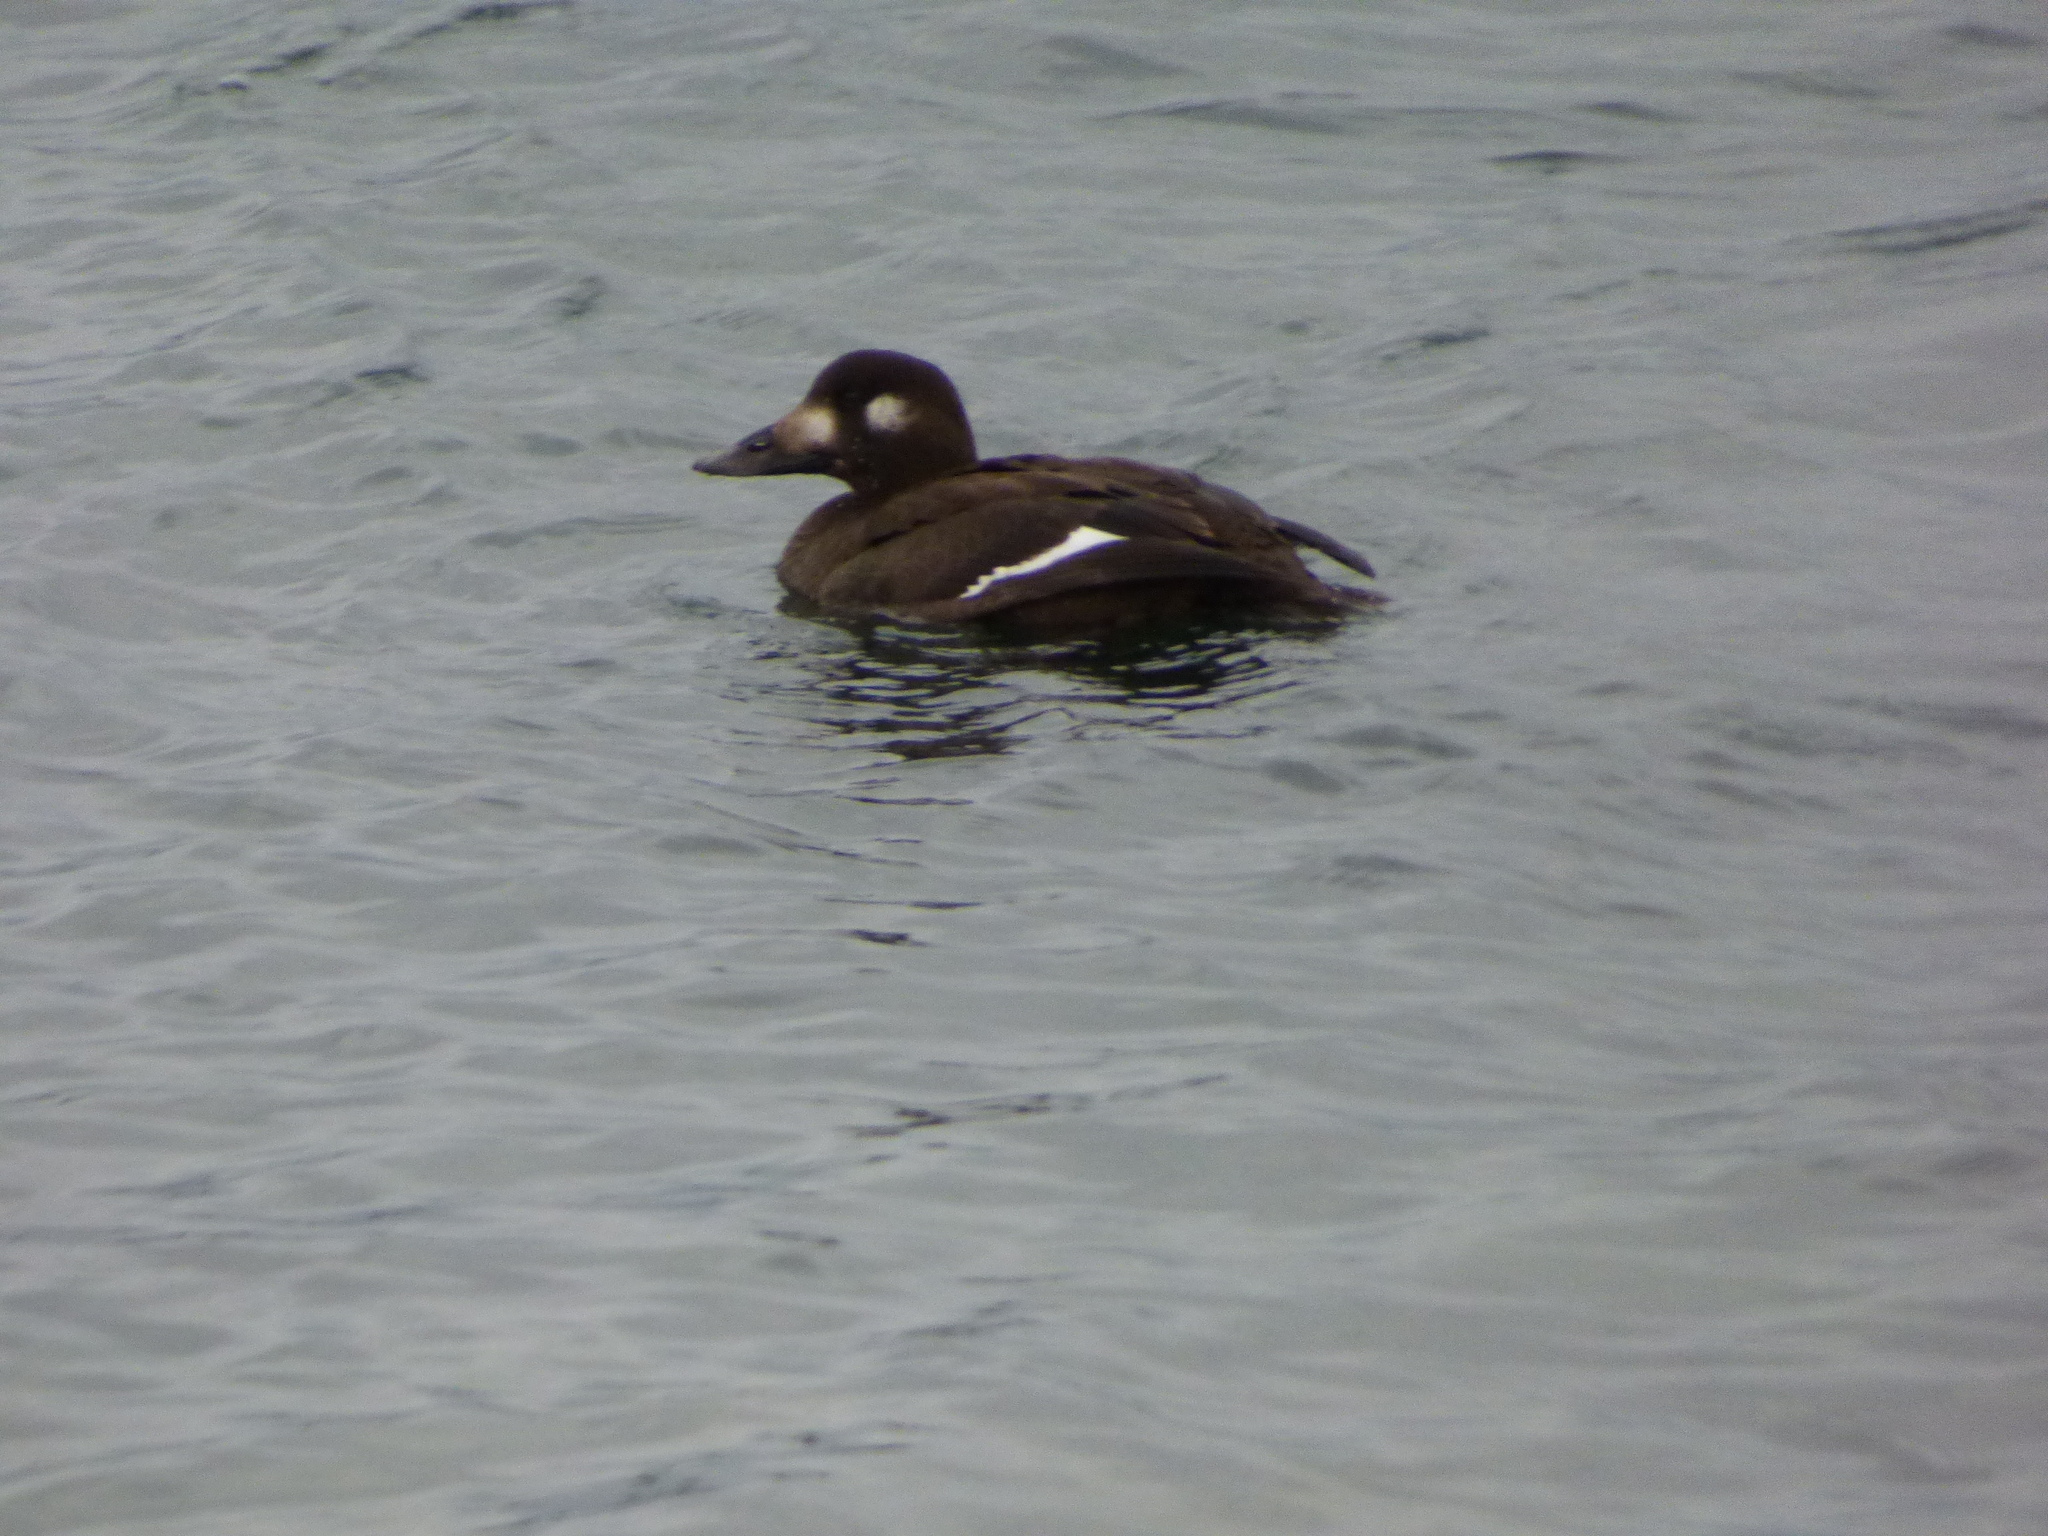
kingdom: Animalia
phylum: Chordata
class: Aves
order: Anseriformes
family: Anatidae
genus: Melanitta
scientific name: Melanitta deglandi
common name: White-winged scoter
